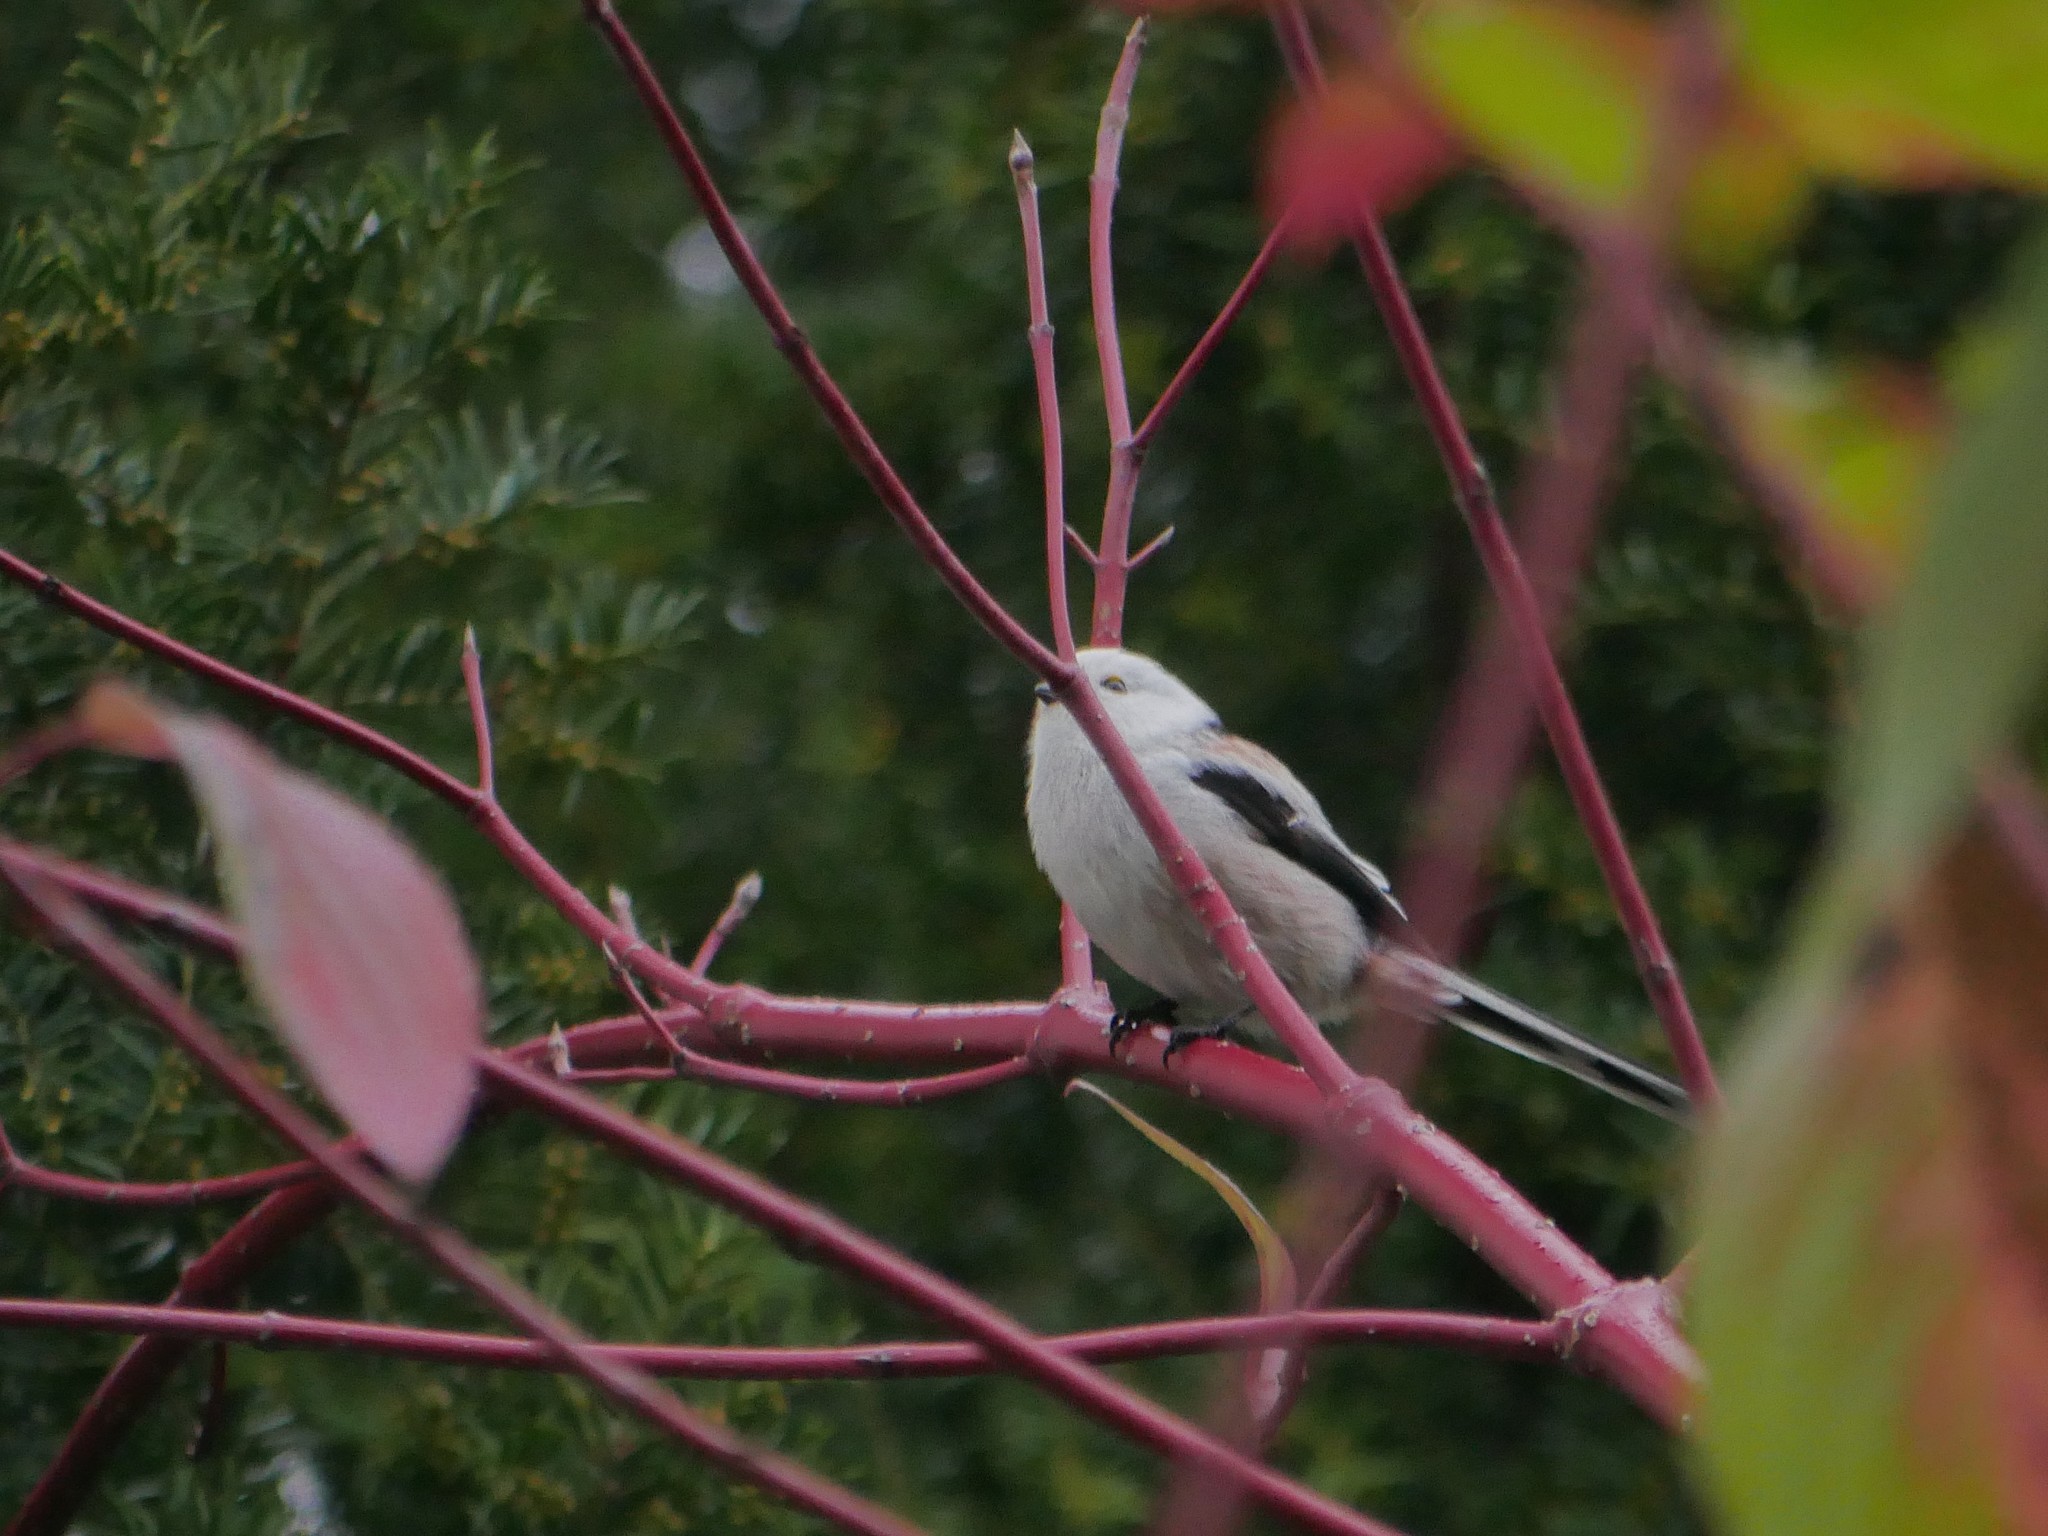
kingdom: Animalia
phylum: Chordata
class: Aves
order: Passeriformes
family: Aegithalidae
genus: Aegithalos
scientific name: Aegithalos caudatus
